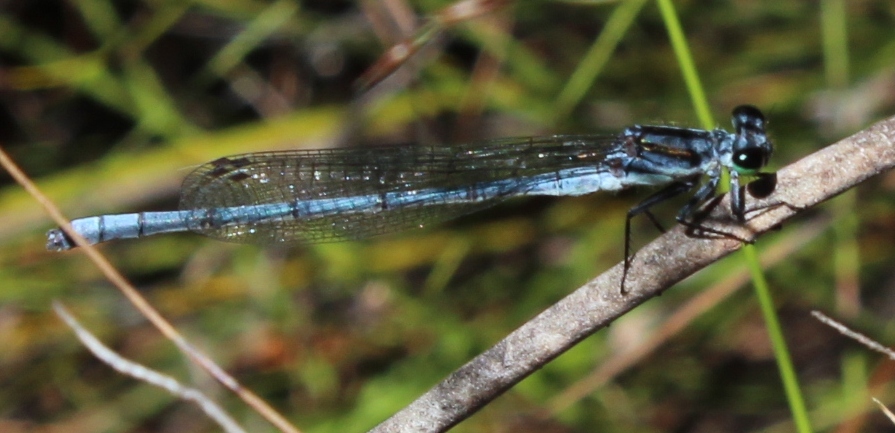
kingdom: Animalia
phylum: Arthropoda
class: Insecta
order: Odonata
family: Coenagrionidae
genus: Pseudagrion
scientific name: Pseudagrion furcigerum
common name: Palmiet sprite
